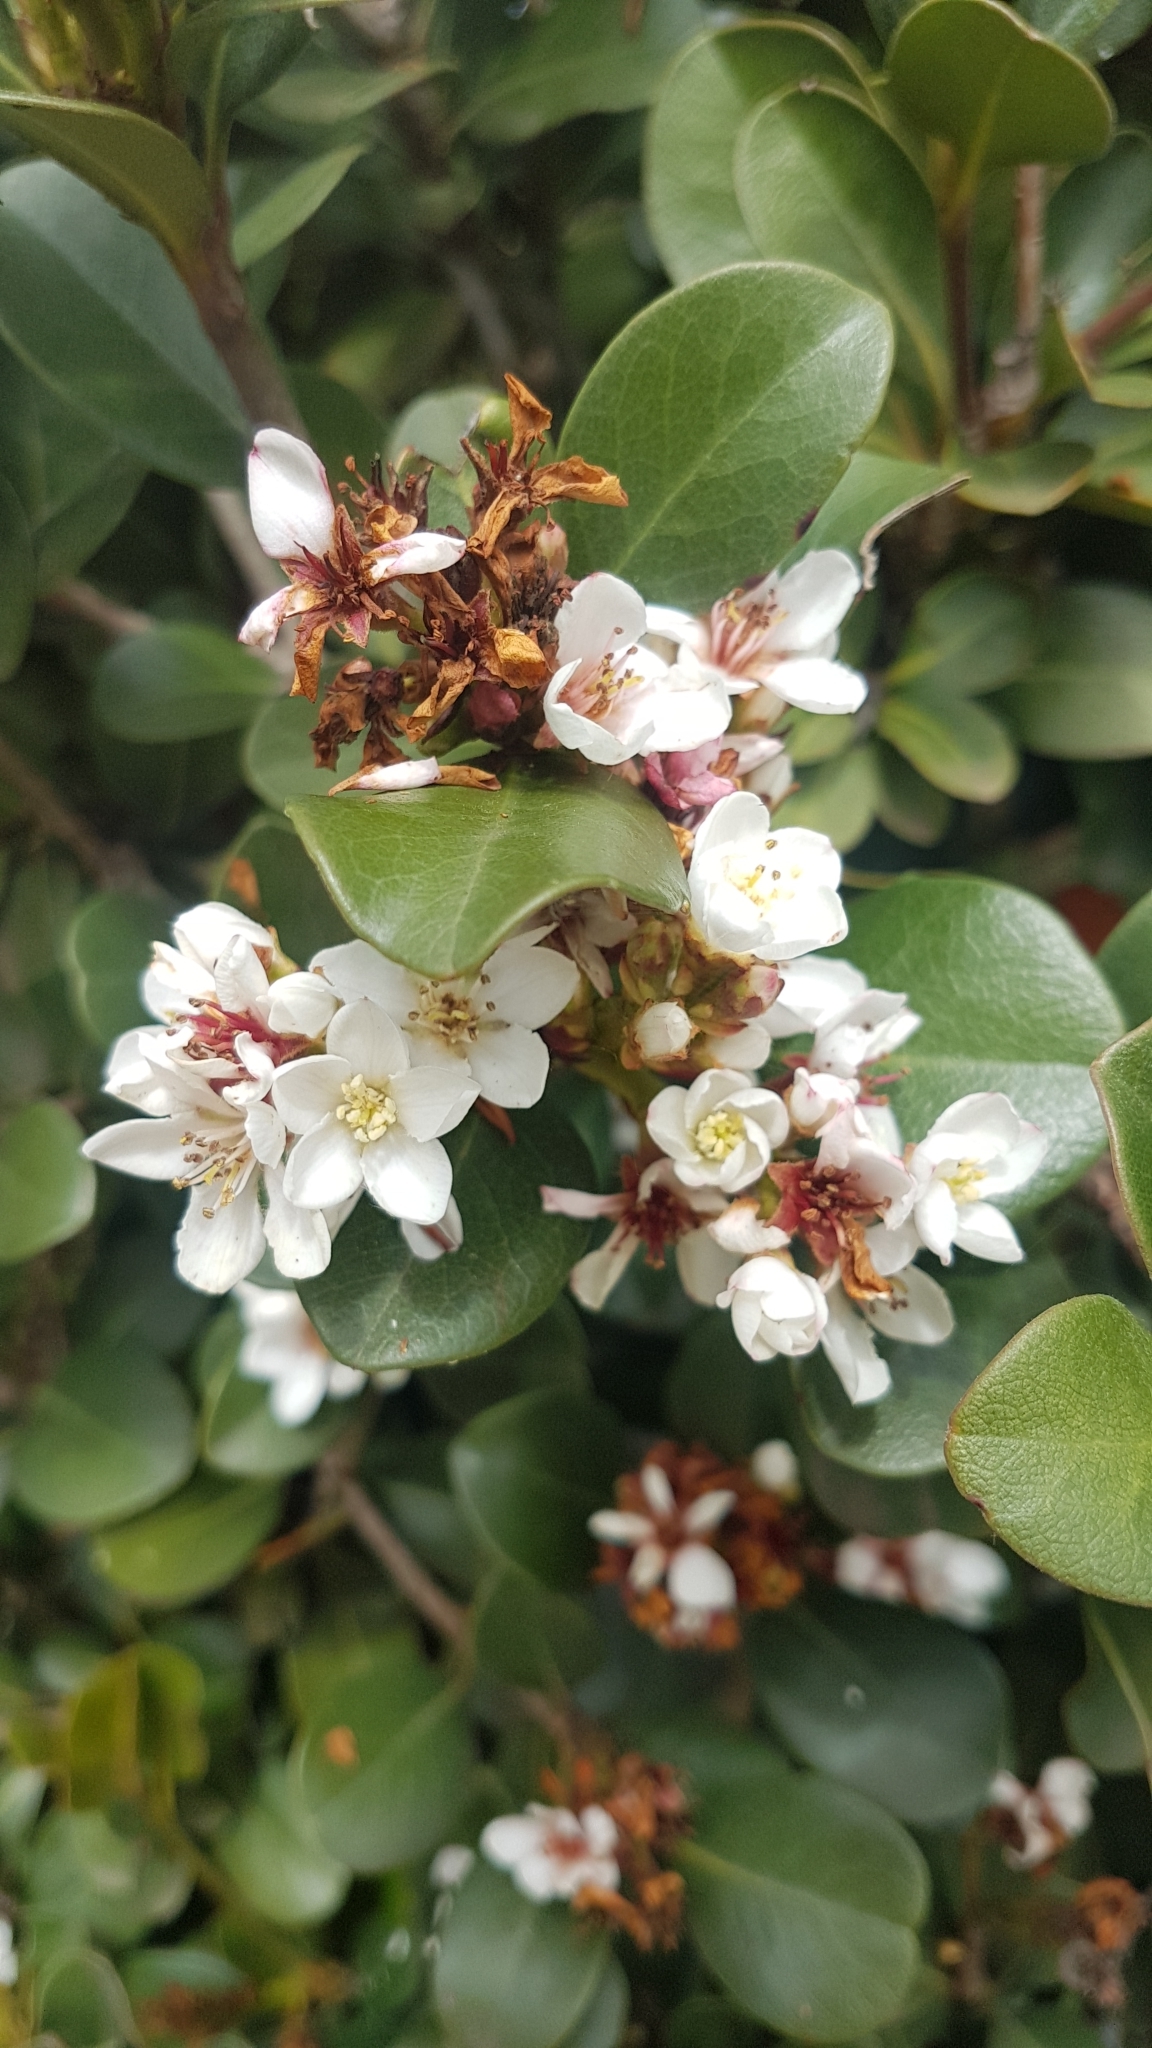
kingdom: Plantae
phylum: Tracheophyta
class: Magnoliopsida
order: Rosales
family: Rosaceae
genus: Rhaphiolepis
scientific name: Rhaphiolepis indica
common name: India-hawthorn
